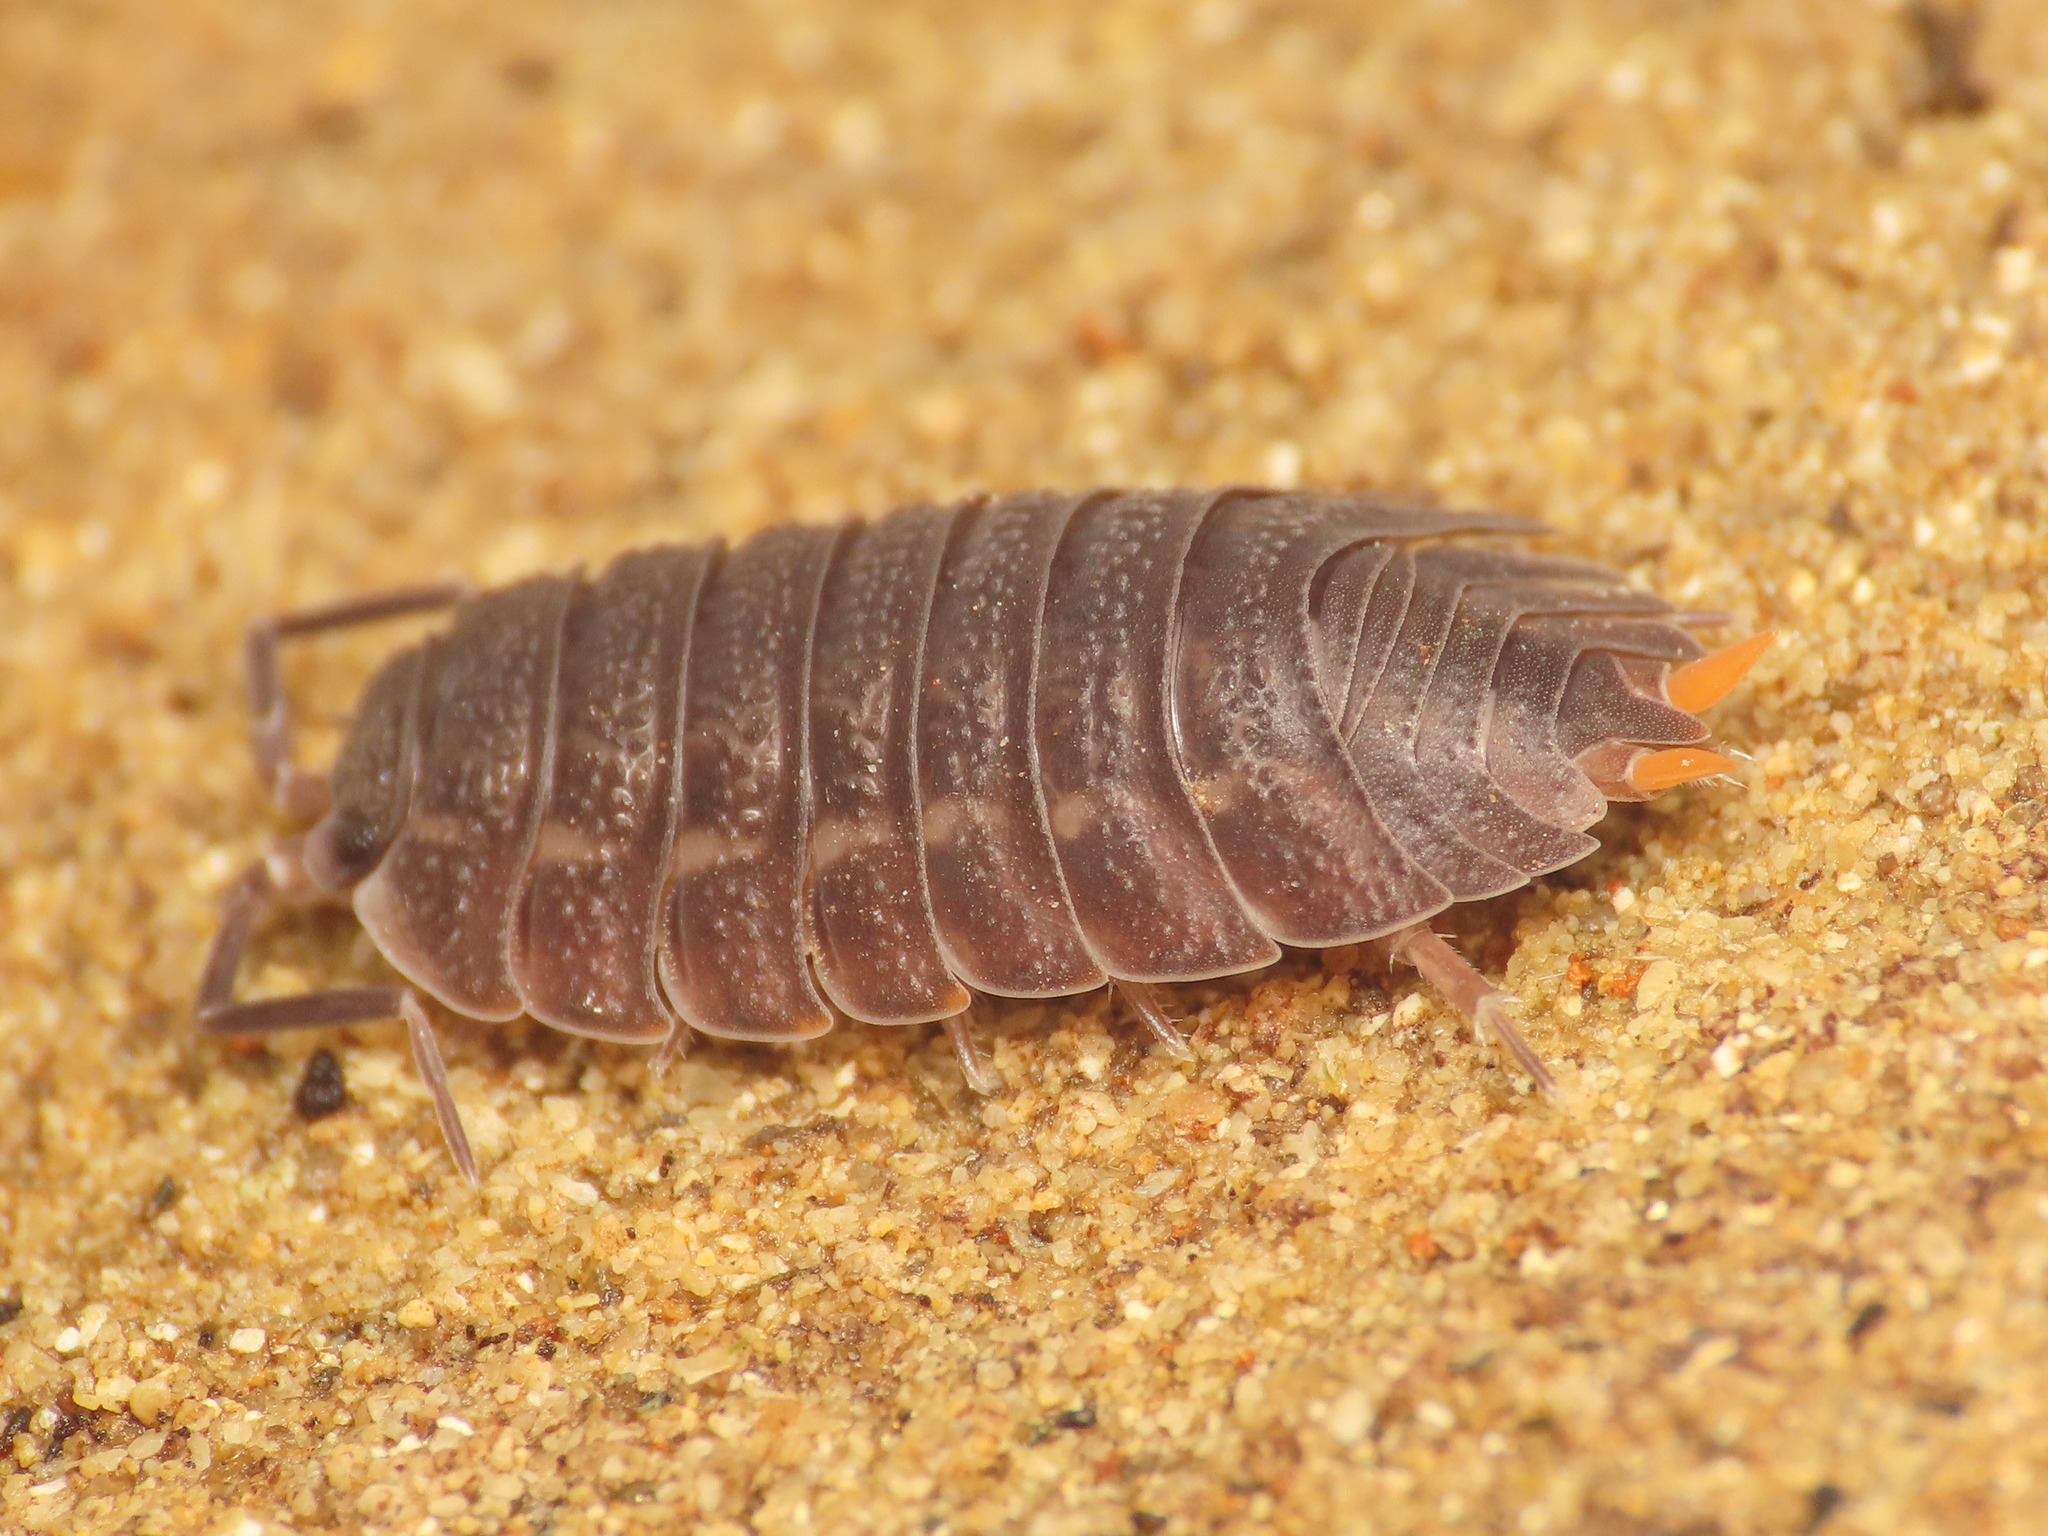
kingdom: Animalia
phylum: Arthropoda
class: Malacostraca
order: Isopoda
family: Trachelipodidae
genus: Trachelipus
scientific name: Trachelipus arcuatus
